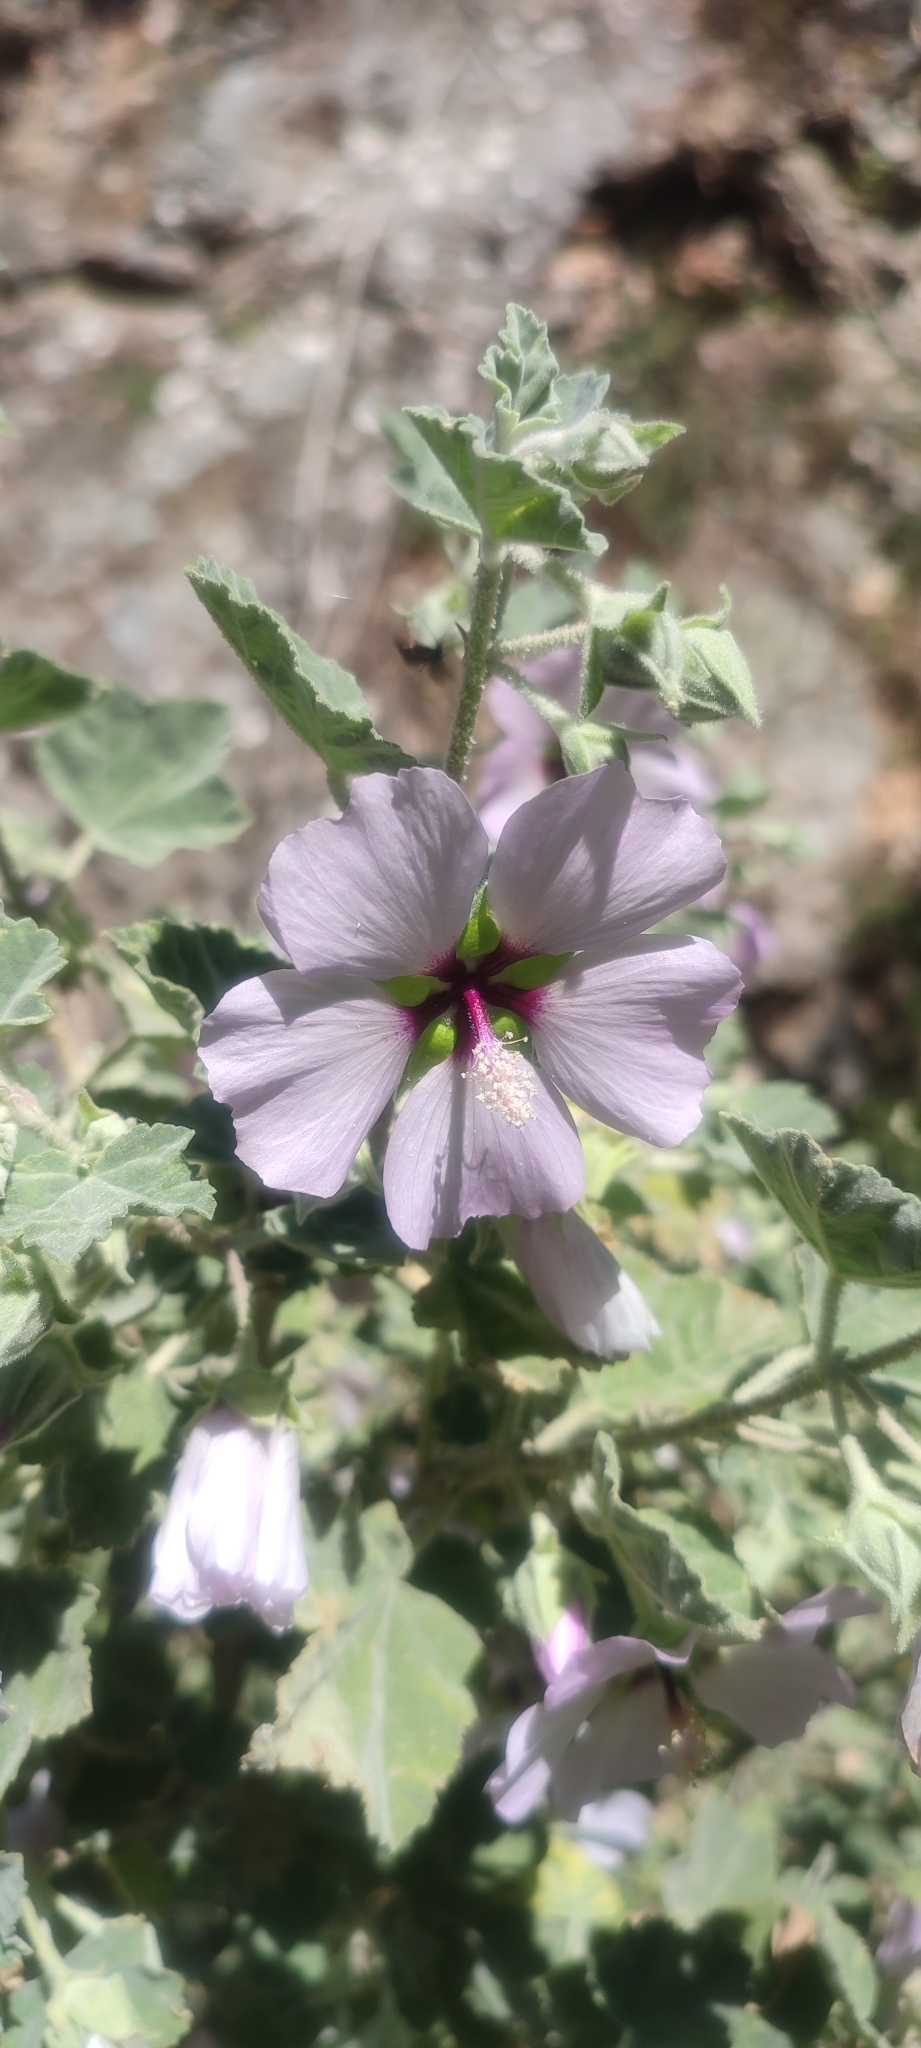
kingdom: Plantae
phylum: Tracheophyta
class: Magnoliopsida
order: Malvales
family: Malvaceae
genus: Malva
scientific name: Malva subovata
